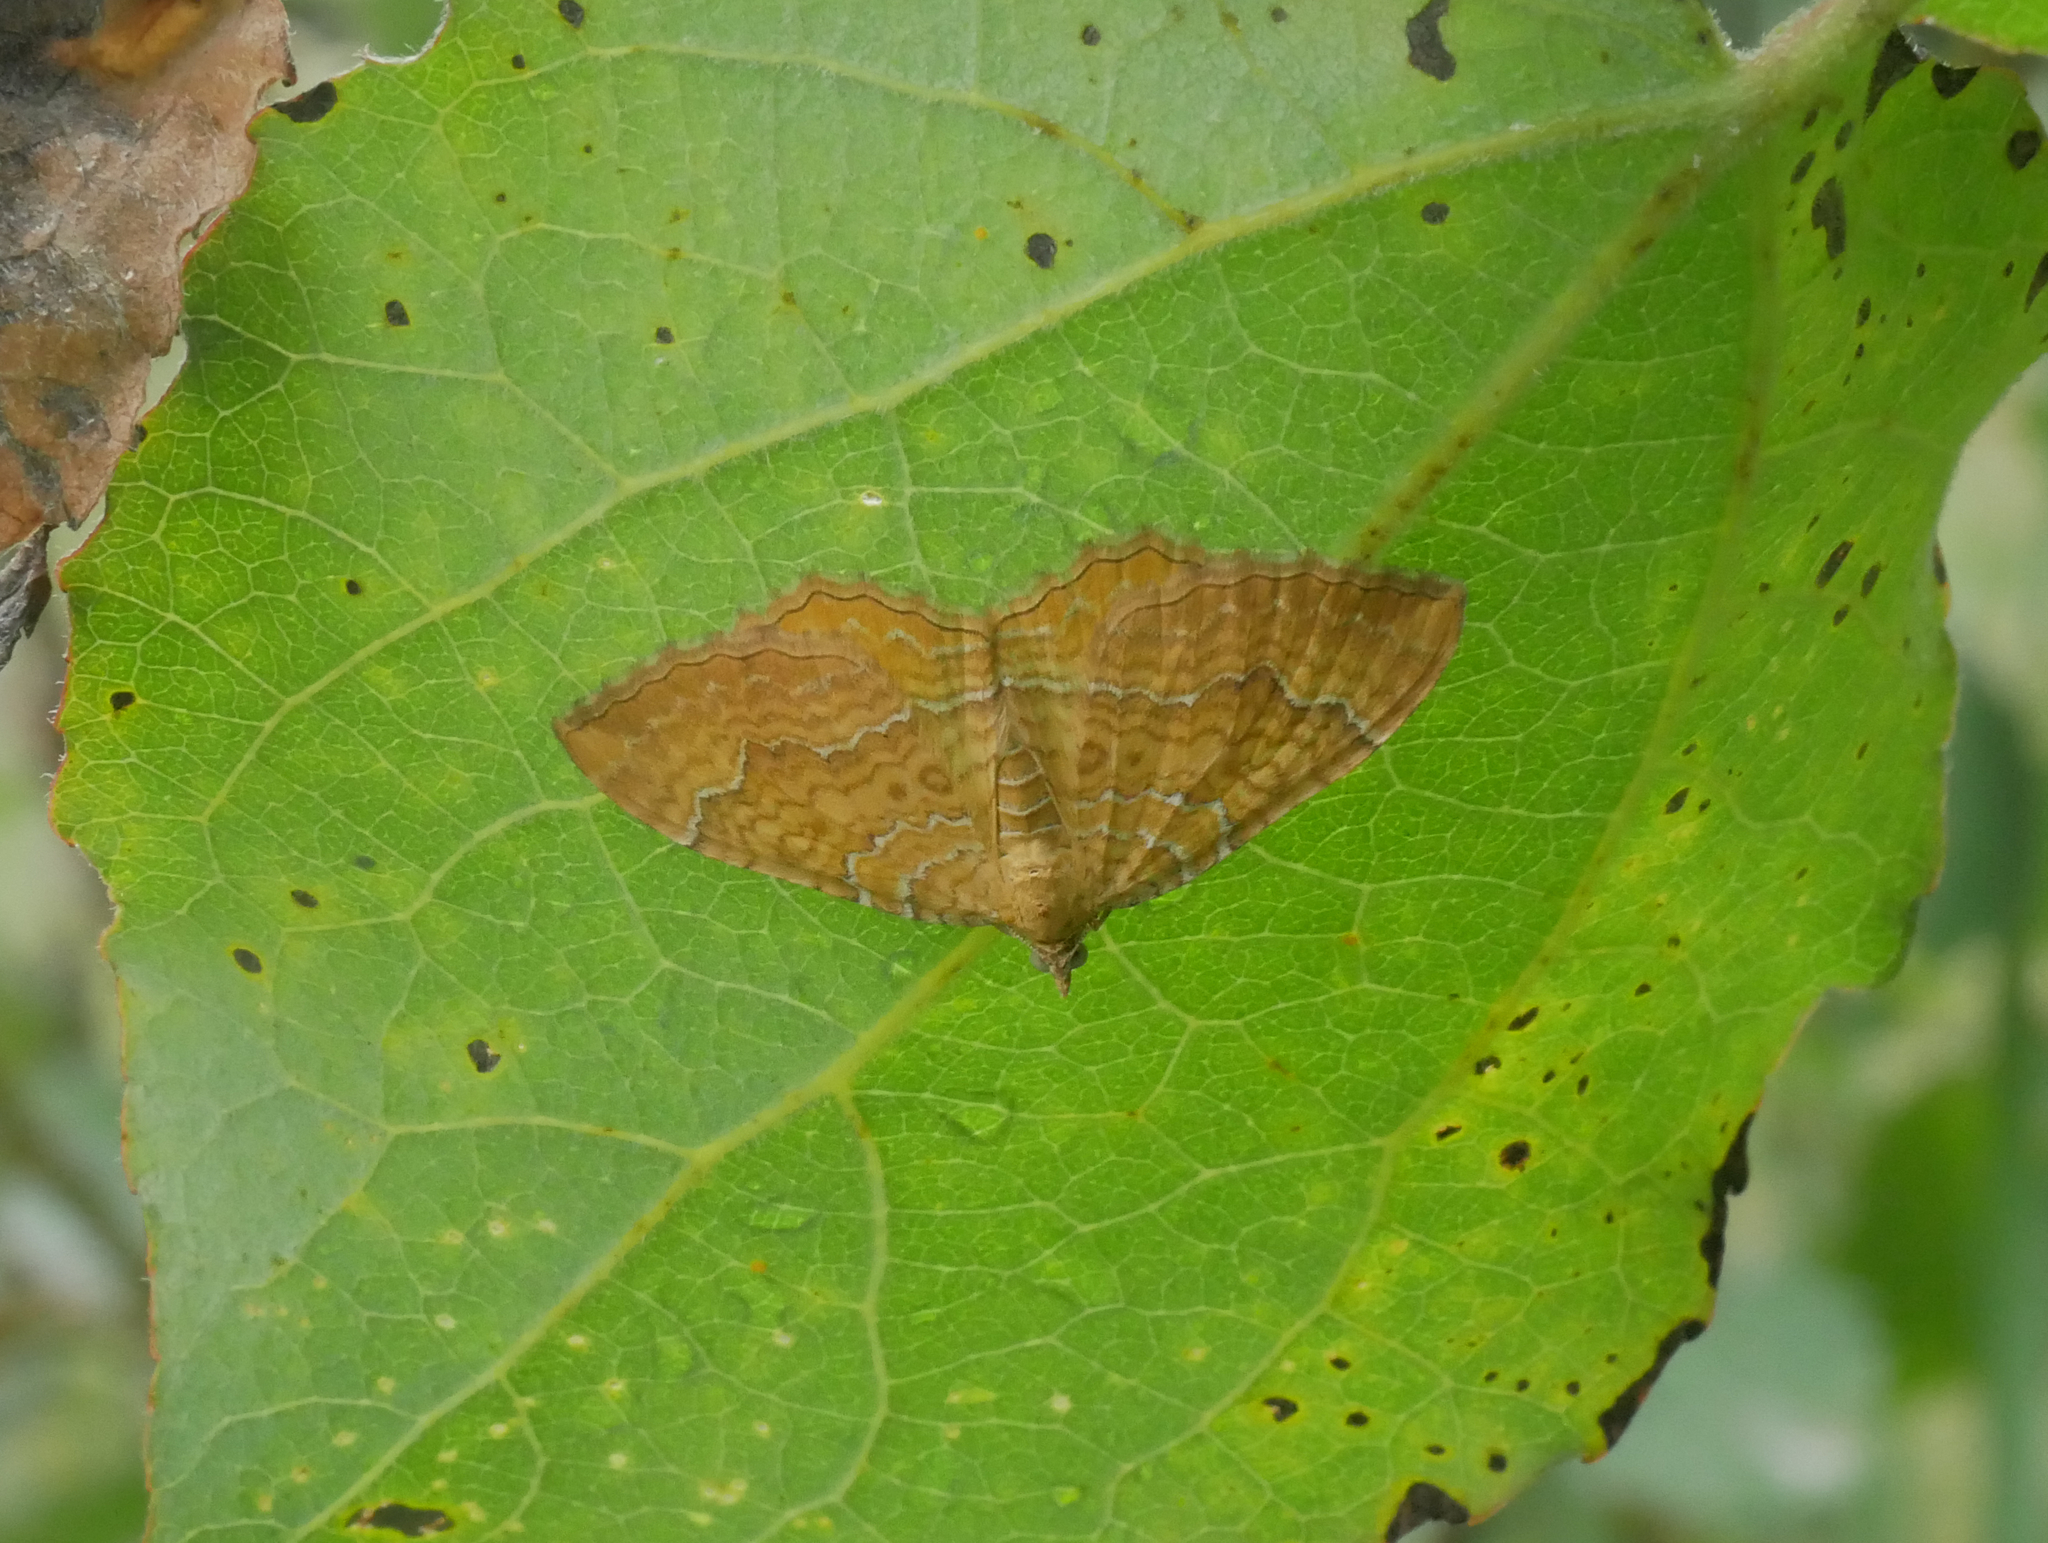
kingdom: Animalia
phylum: Arthropoda
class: Insecta
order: Lepidoptera
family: Geometridae
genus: Camptogramma
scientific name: Camptogramma bilineata
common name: Yellow shell
